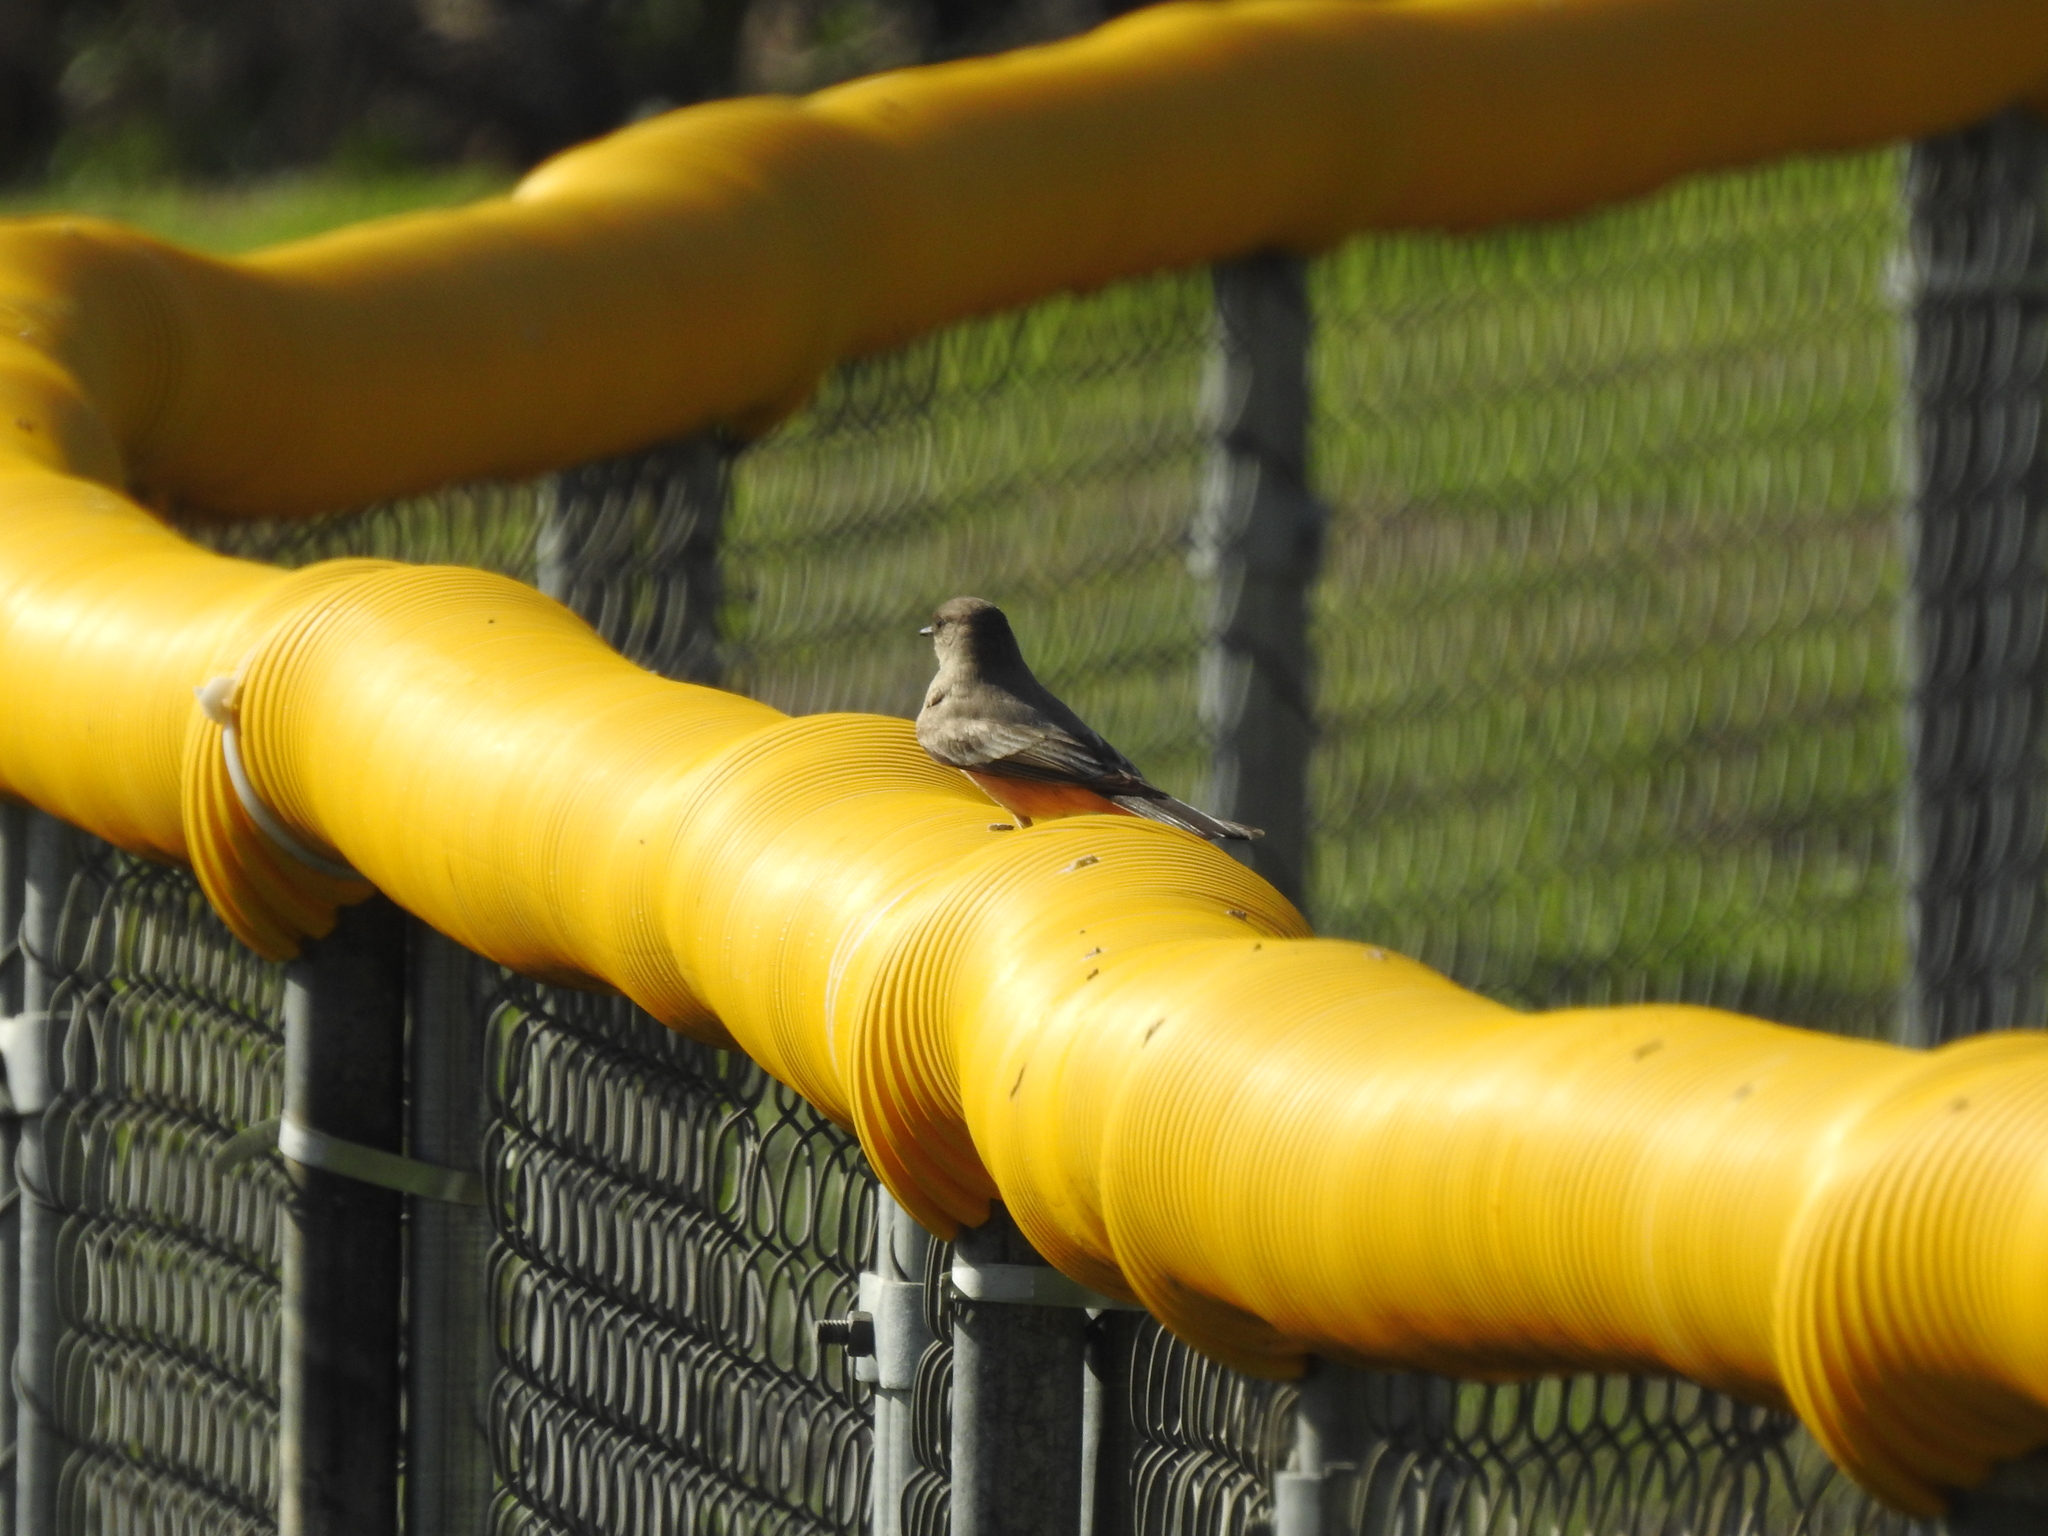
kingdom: Animalia
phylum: Chordata
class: Aves
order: Passeriformes
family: Tyrannidae
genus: Sayornis
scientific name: Sayornis saya
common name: Say's phoebe
